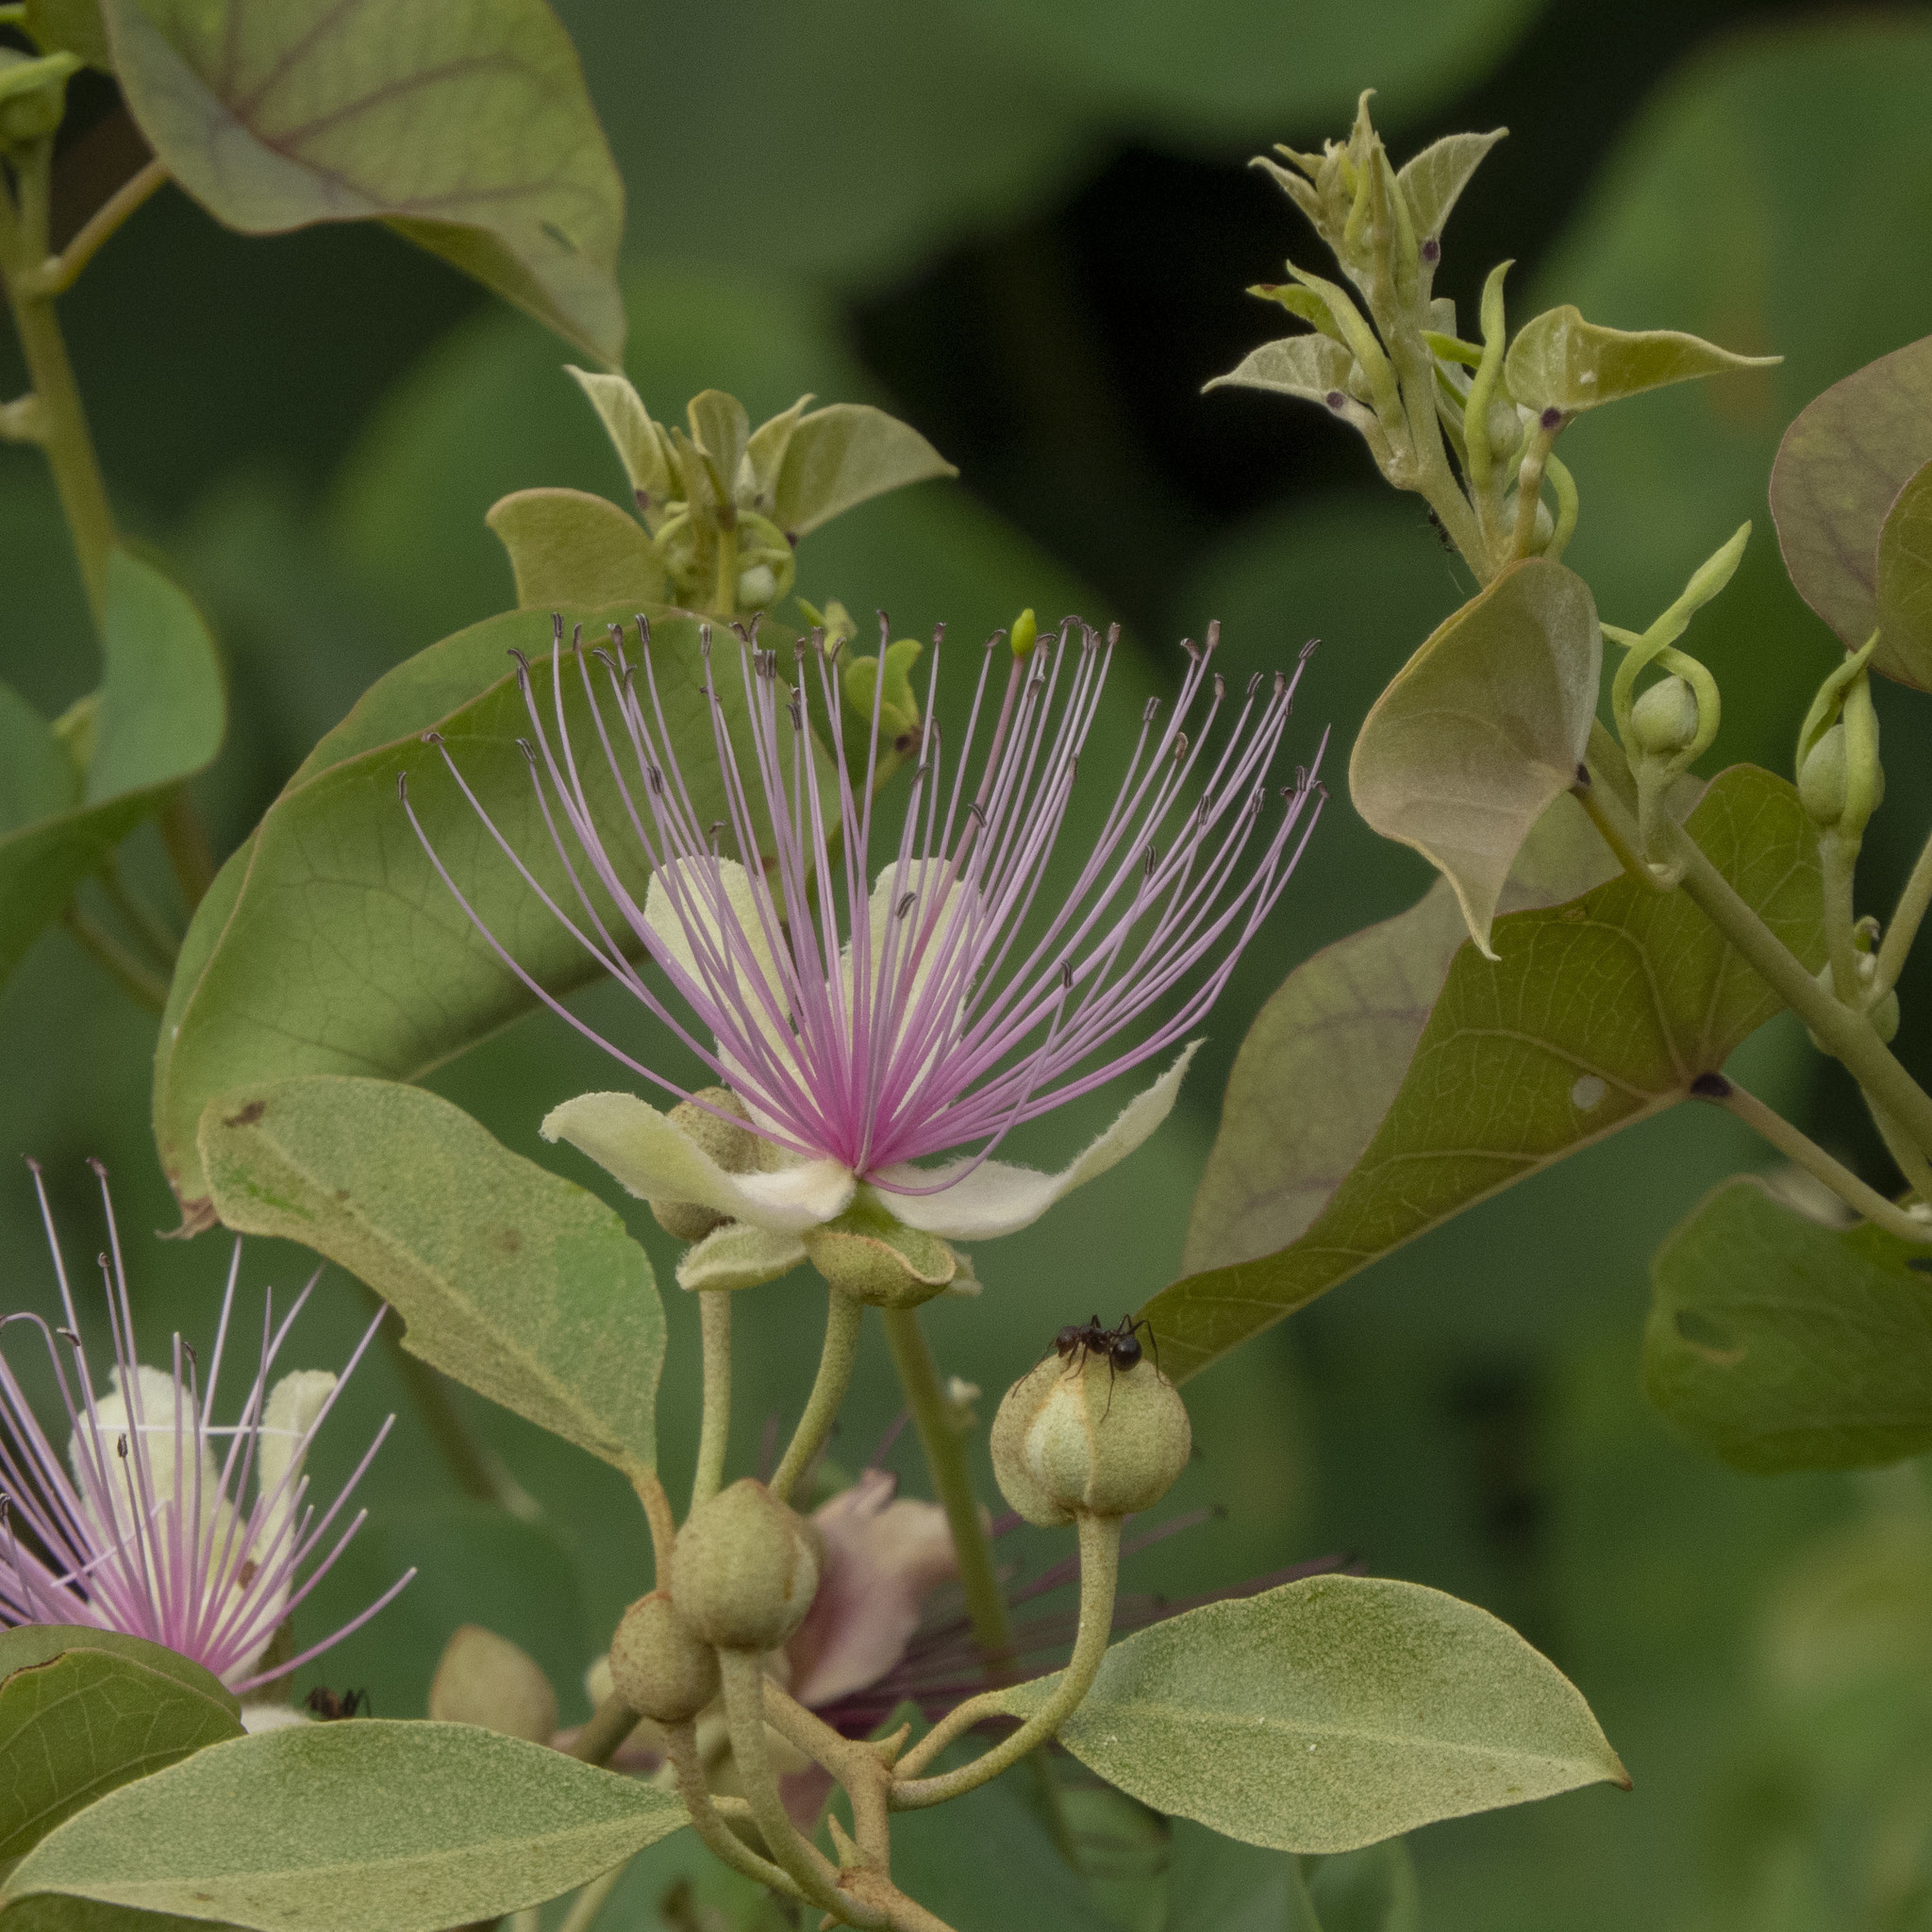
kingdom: Plantae
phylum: Tracheophyta
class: Magnoliopsida
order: Brassicales
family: Capparaceae
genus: Capparis
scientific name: Capparis zeylanica
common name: Ceylon caper
